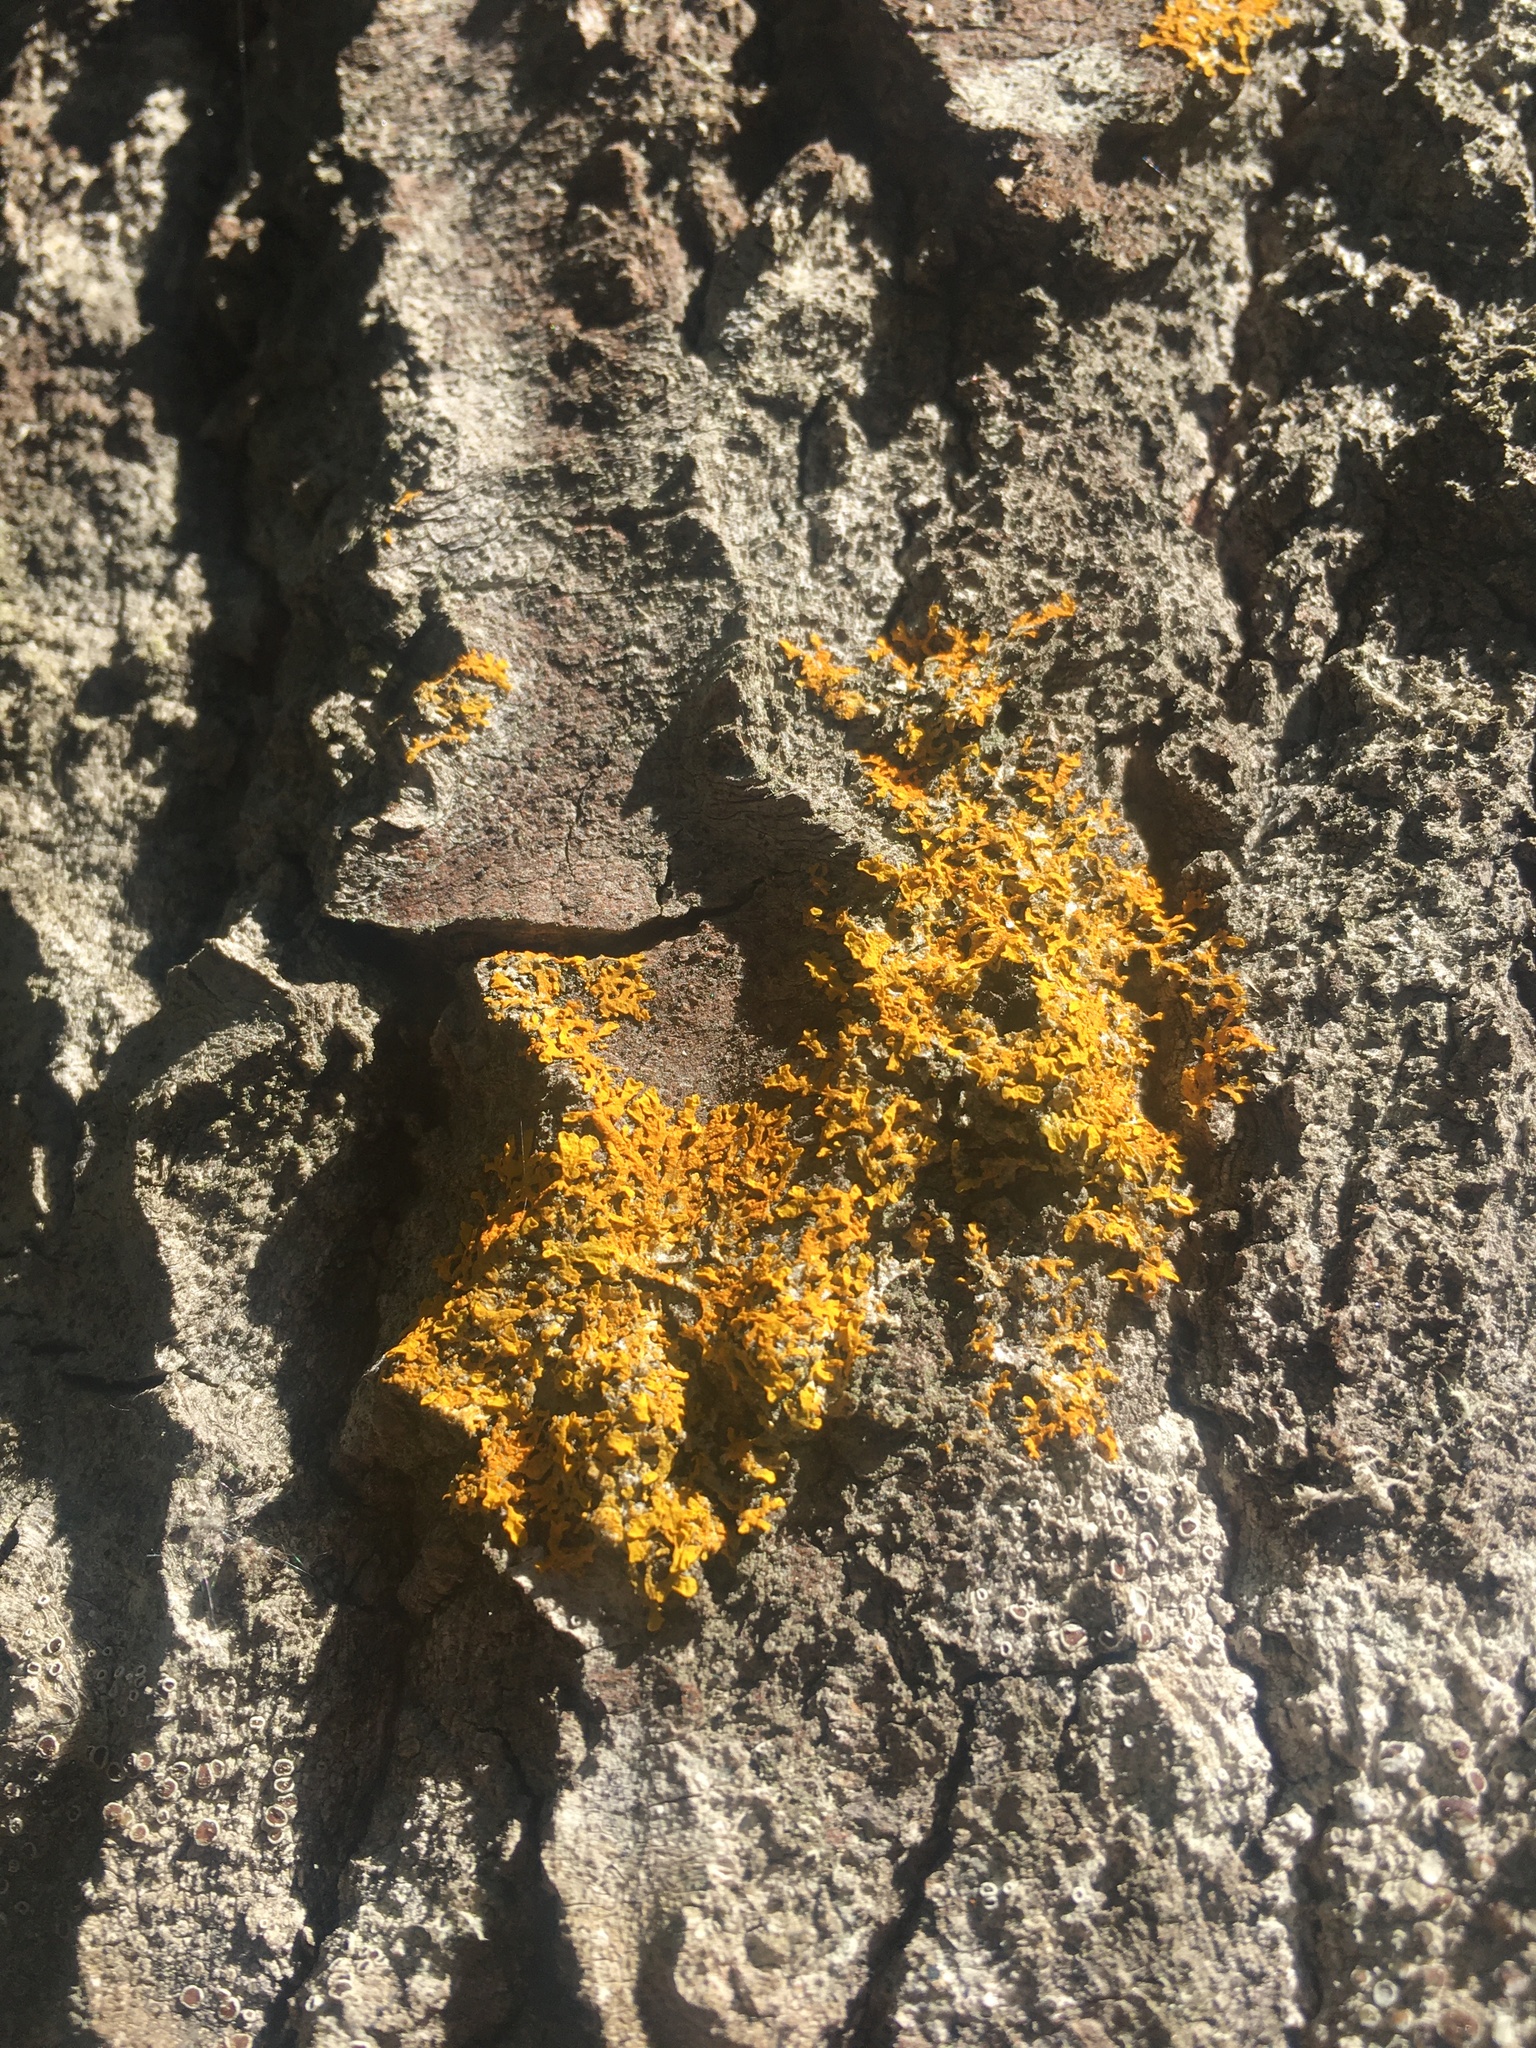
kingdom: Fungi
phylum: Ascomycota
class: Lecanoromycetes
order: Teloschistales
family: Teloschistaceae
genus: Xanthoria
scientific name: Xanthoria parietina
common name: Common orange lichen
